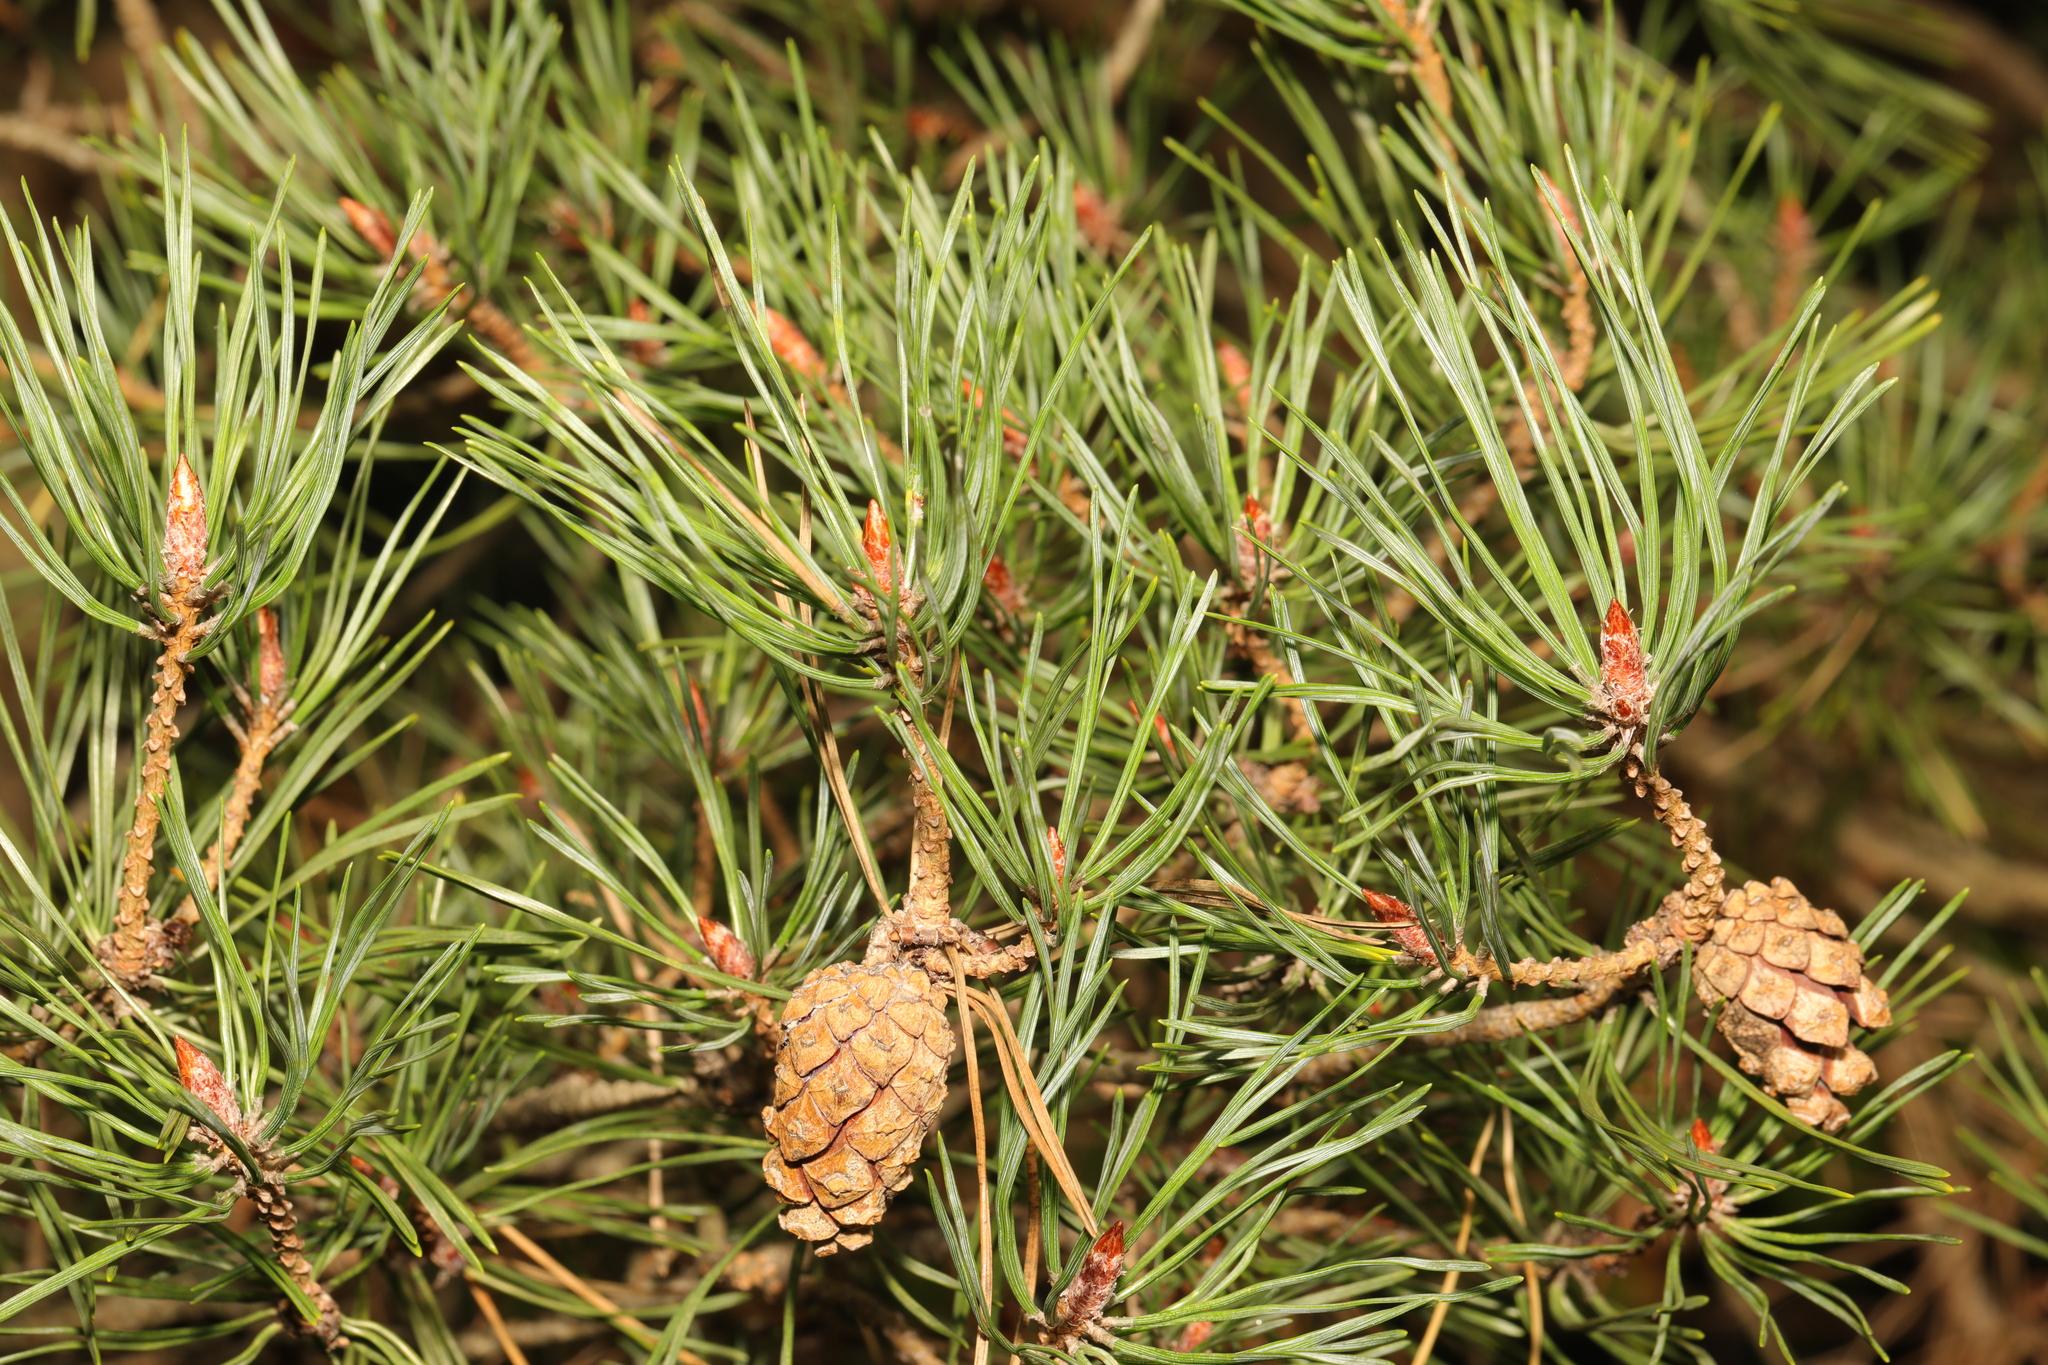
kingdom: Plantae
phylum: Tracheophyta
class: Pinopsida
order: Pinales
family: Pinaceae
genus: Pinus
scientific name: Pinus sylvestris
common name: Scots pine
